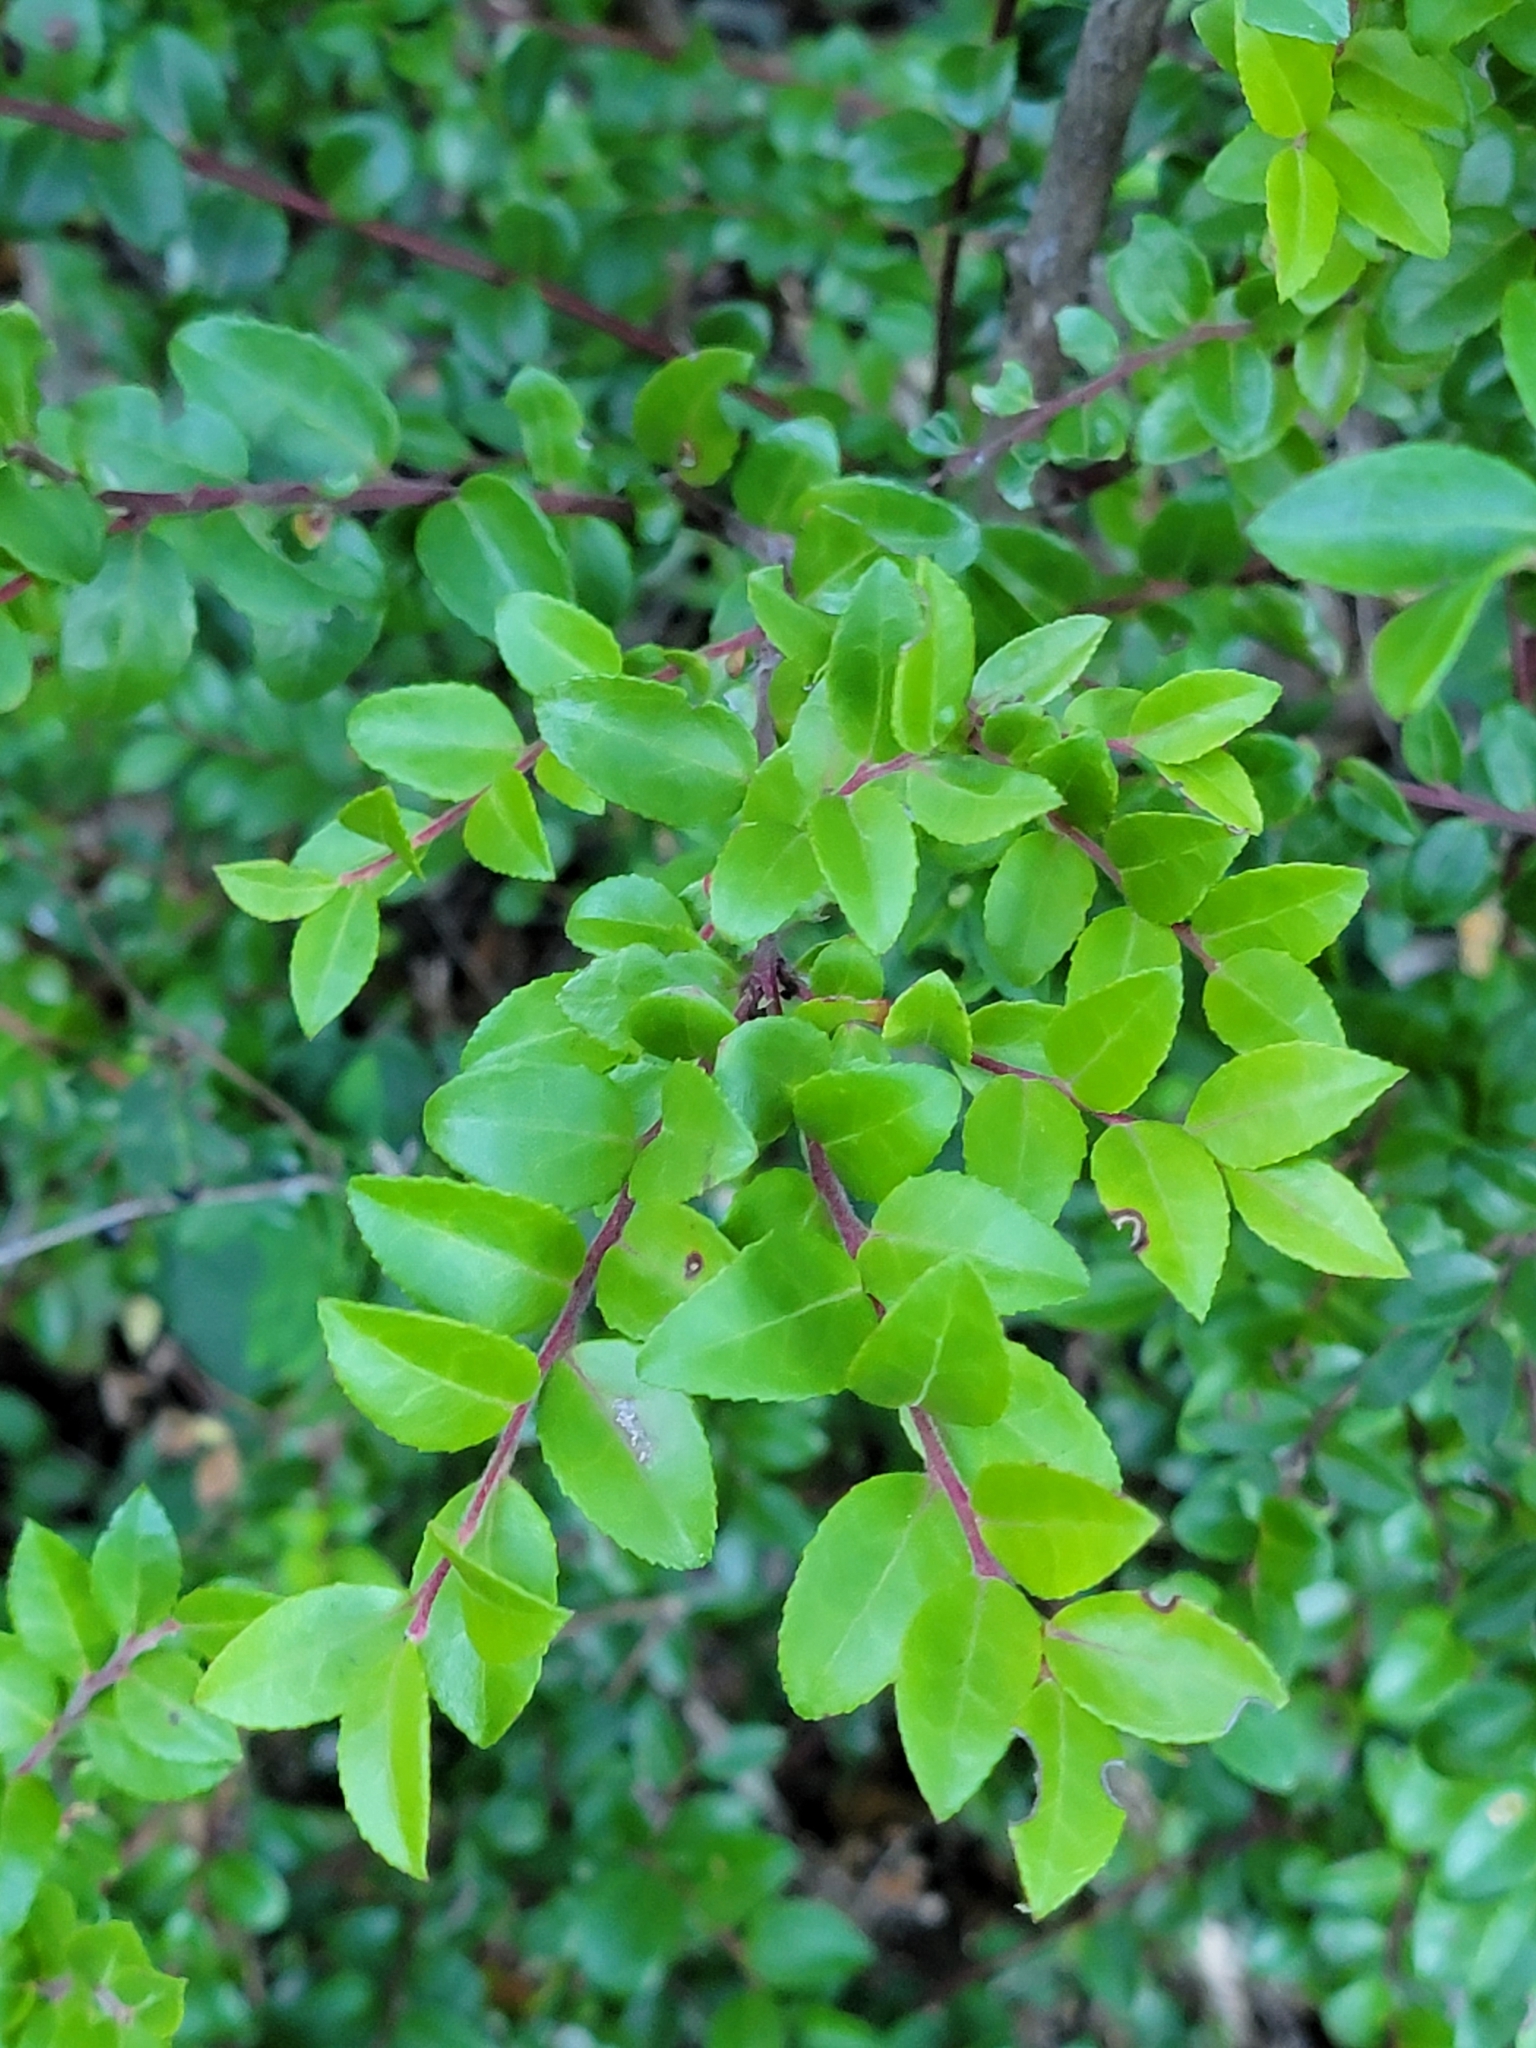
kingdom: Plantae
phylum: Tracheophyta
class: Magnoliopsida
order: Ericales
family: Ericaceae
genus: Vaccinium
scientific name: Vaccinium ovatum
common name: California-huckleberry
